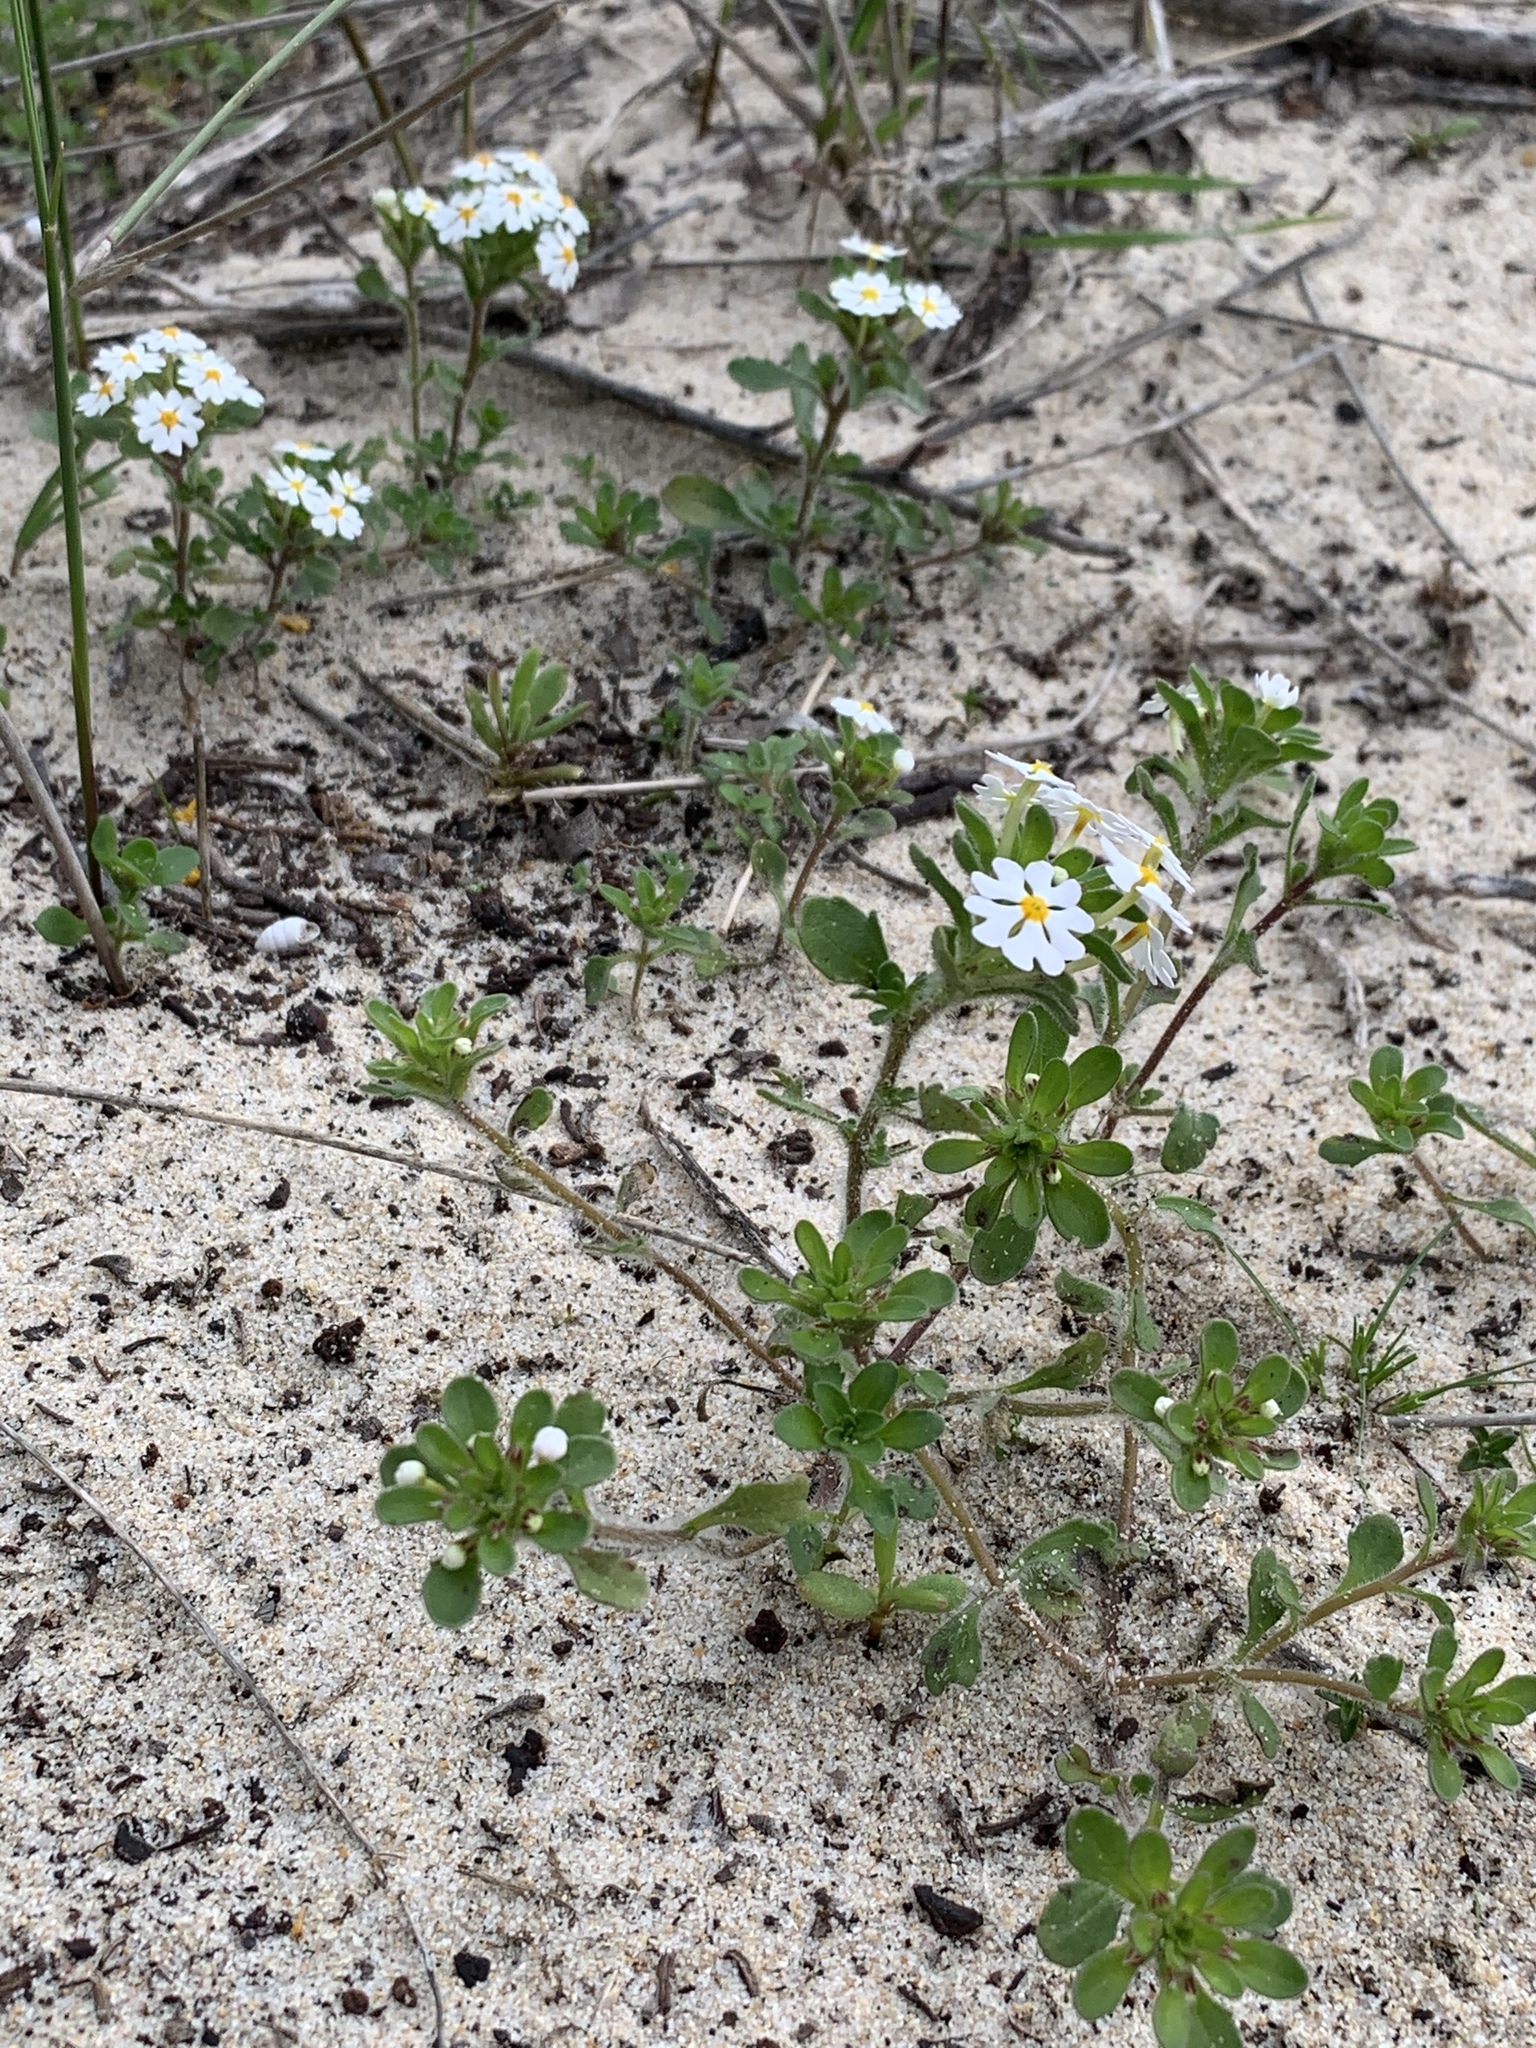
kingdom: Plantae
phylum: Tracheophyta
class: Magnoliopsida
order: Lamiales
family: Scrophulariaceae
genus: Zaluzianskya
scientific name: Zaluzianskya villosa
